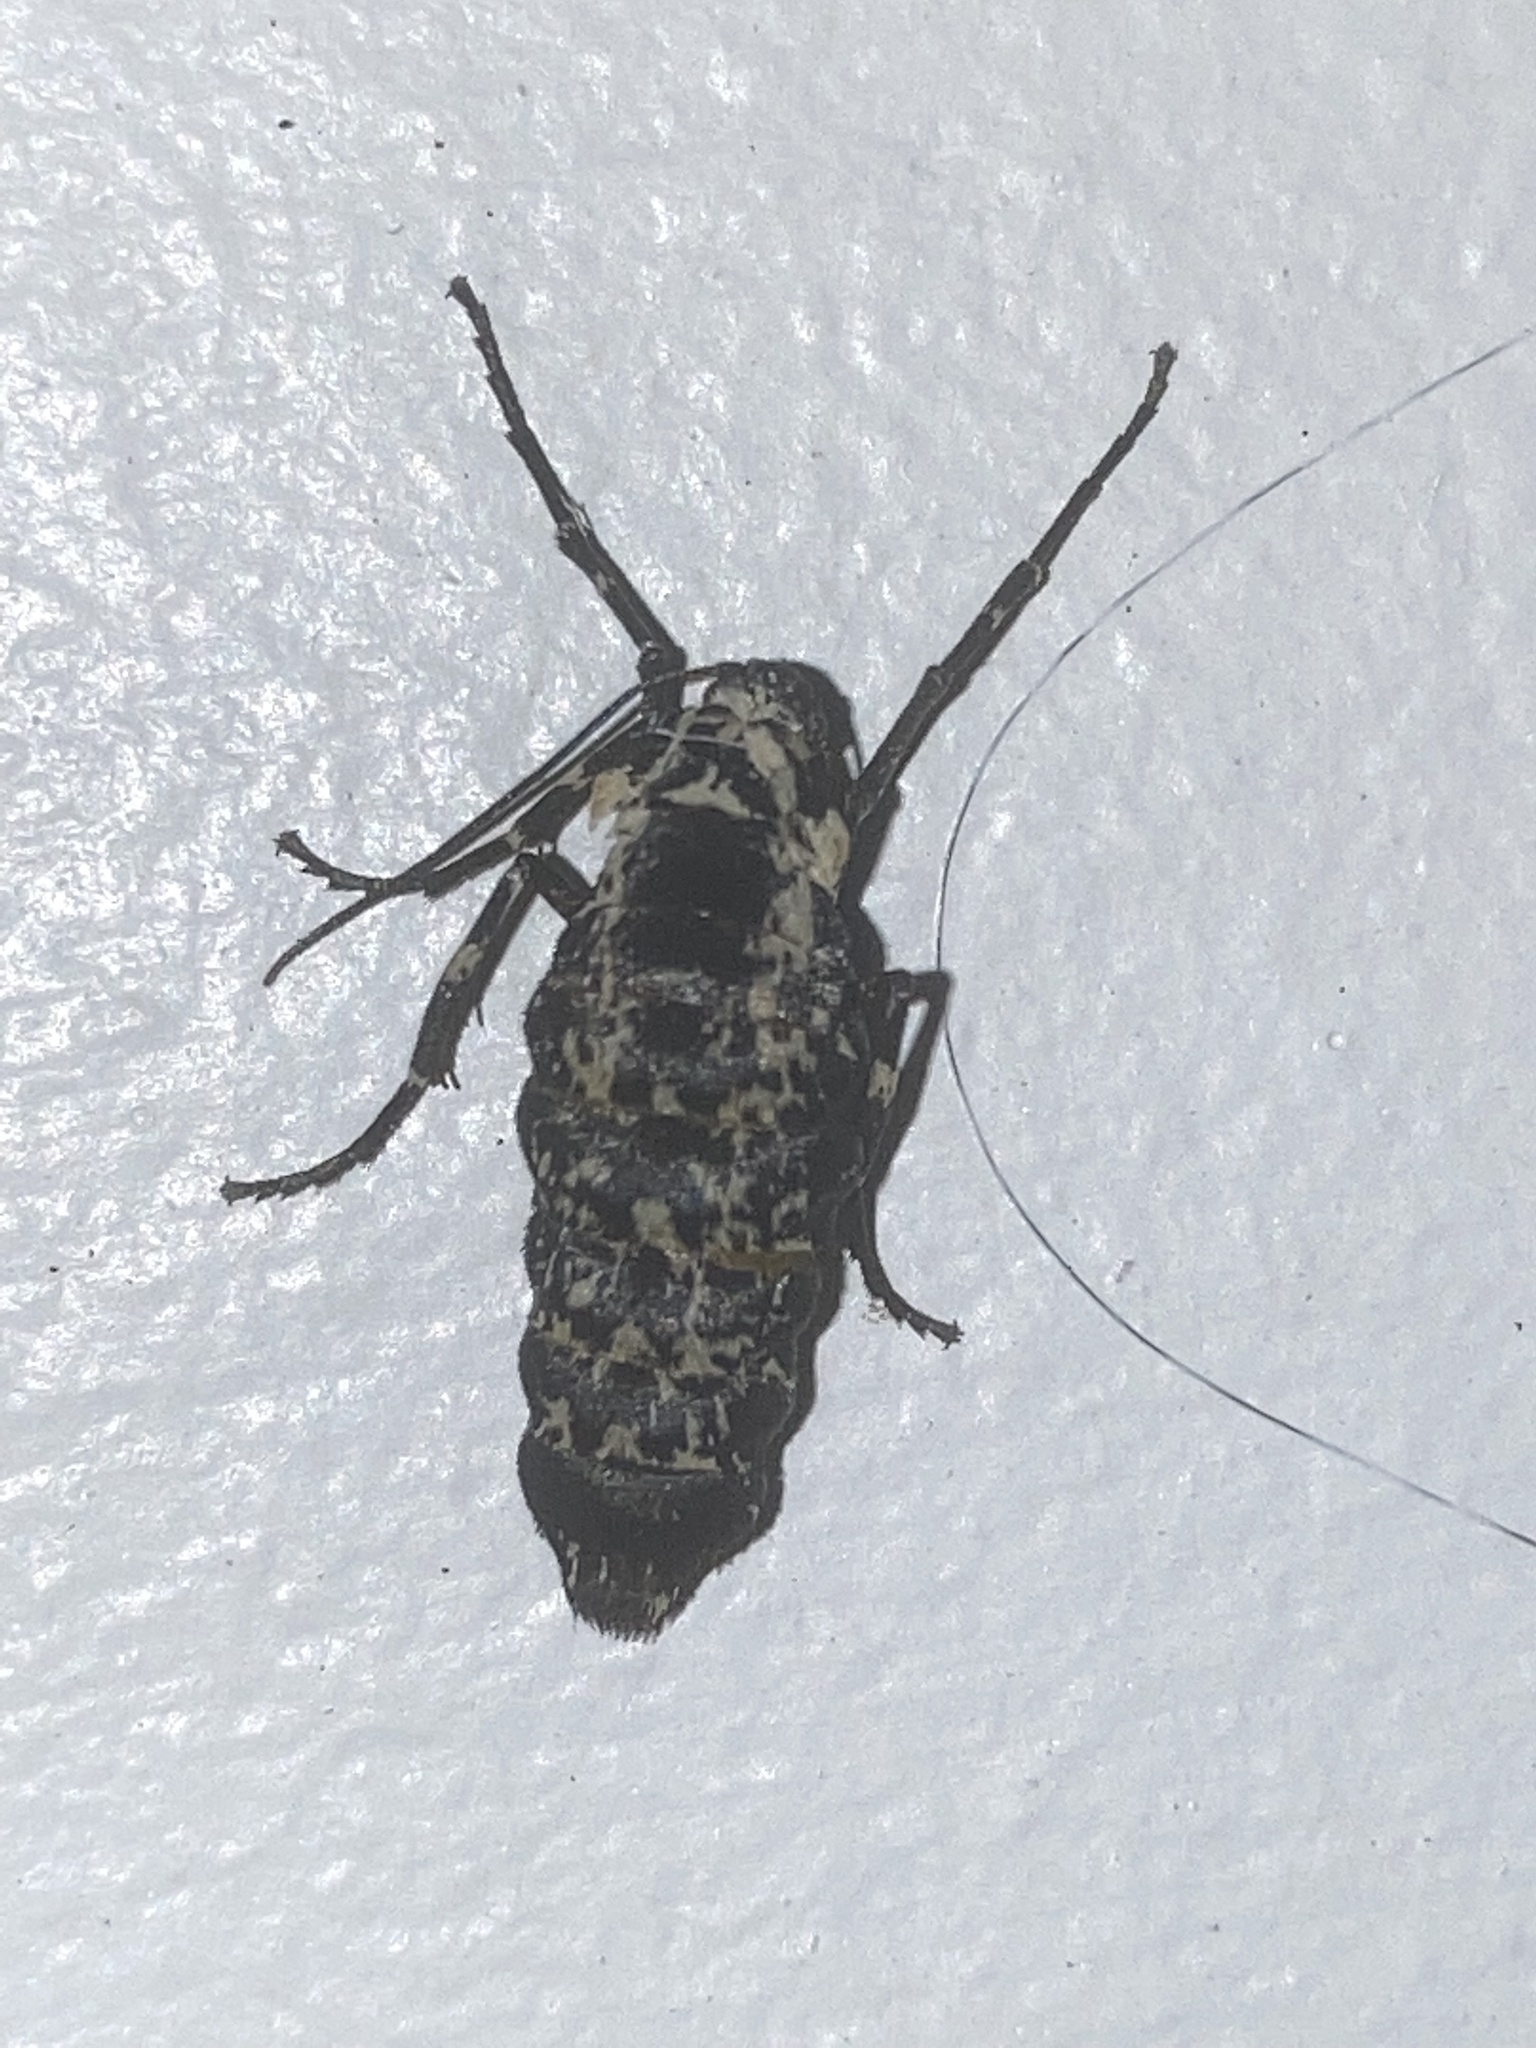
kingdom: Animalia
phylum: Arthropoda
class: Insecta
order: Lepidoptera
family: Geometridae
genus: Erannis
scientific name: Erannis vancouverensis
